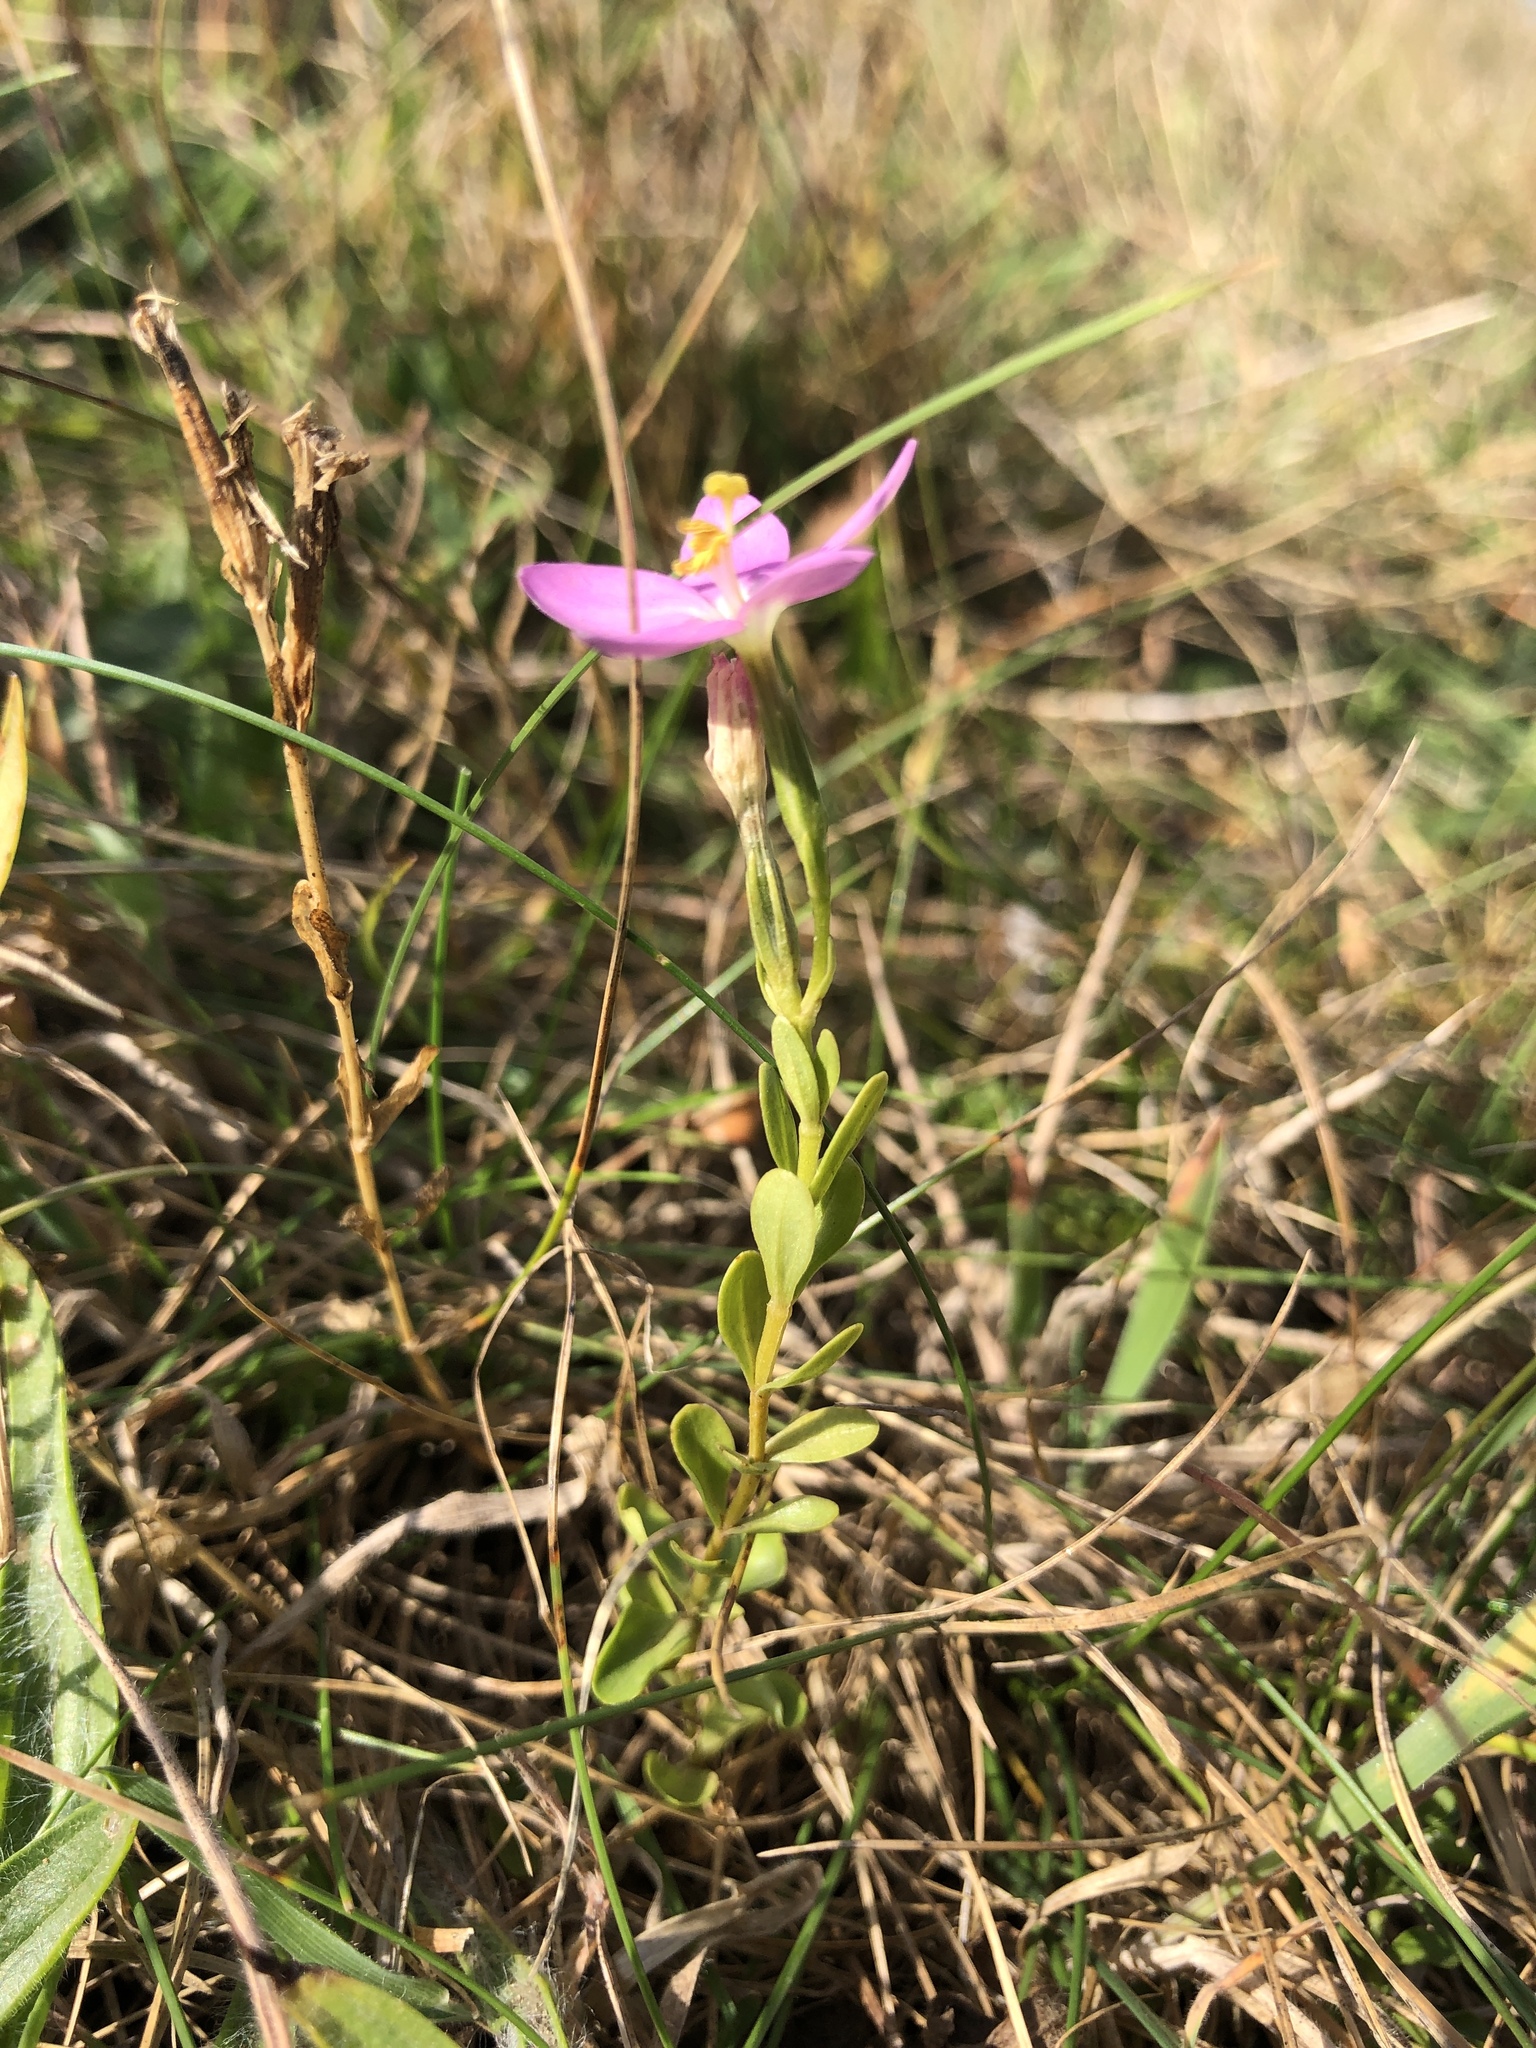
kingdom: Plantae
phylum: Tracheophyta
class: Magnoliopsida
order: Gentianales
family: Gentianaceae
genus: Centaurium
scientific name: Centaurium erythraea
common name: Common centaury
